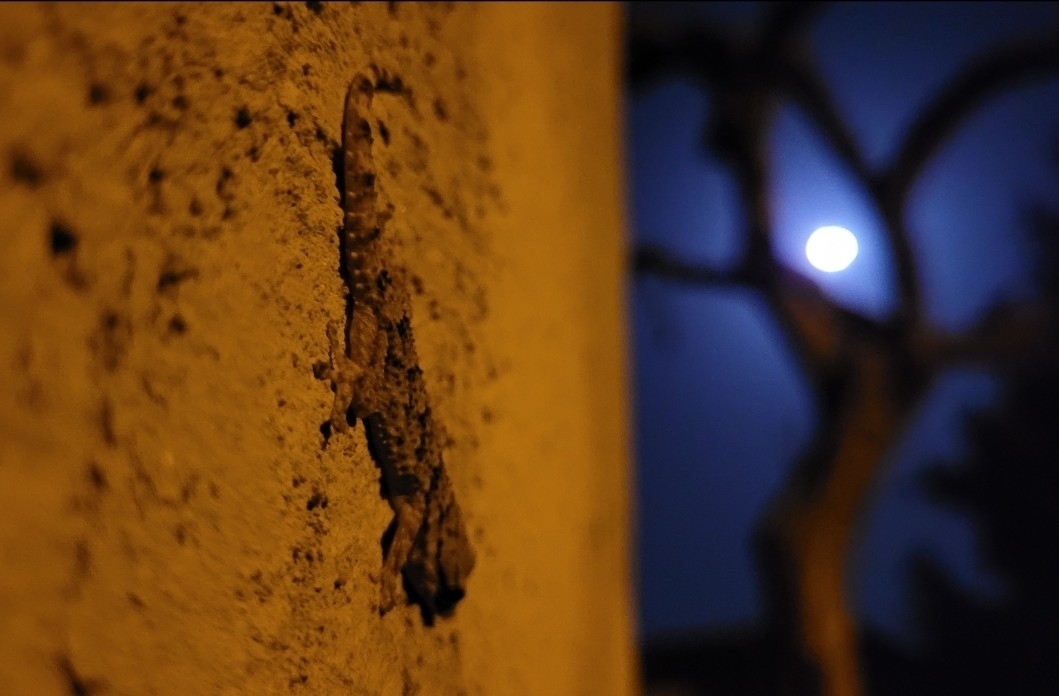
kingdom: Animalia
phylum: Chordata
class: Squamata
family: Phyllodactylidae
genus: Tarentola
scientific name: Tarentola mauritanica
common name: Moorish gecko
